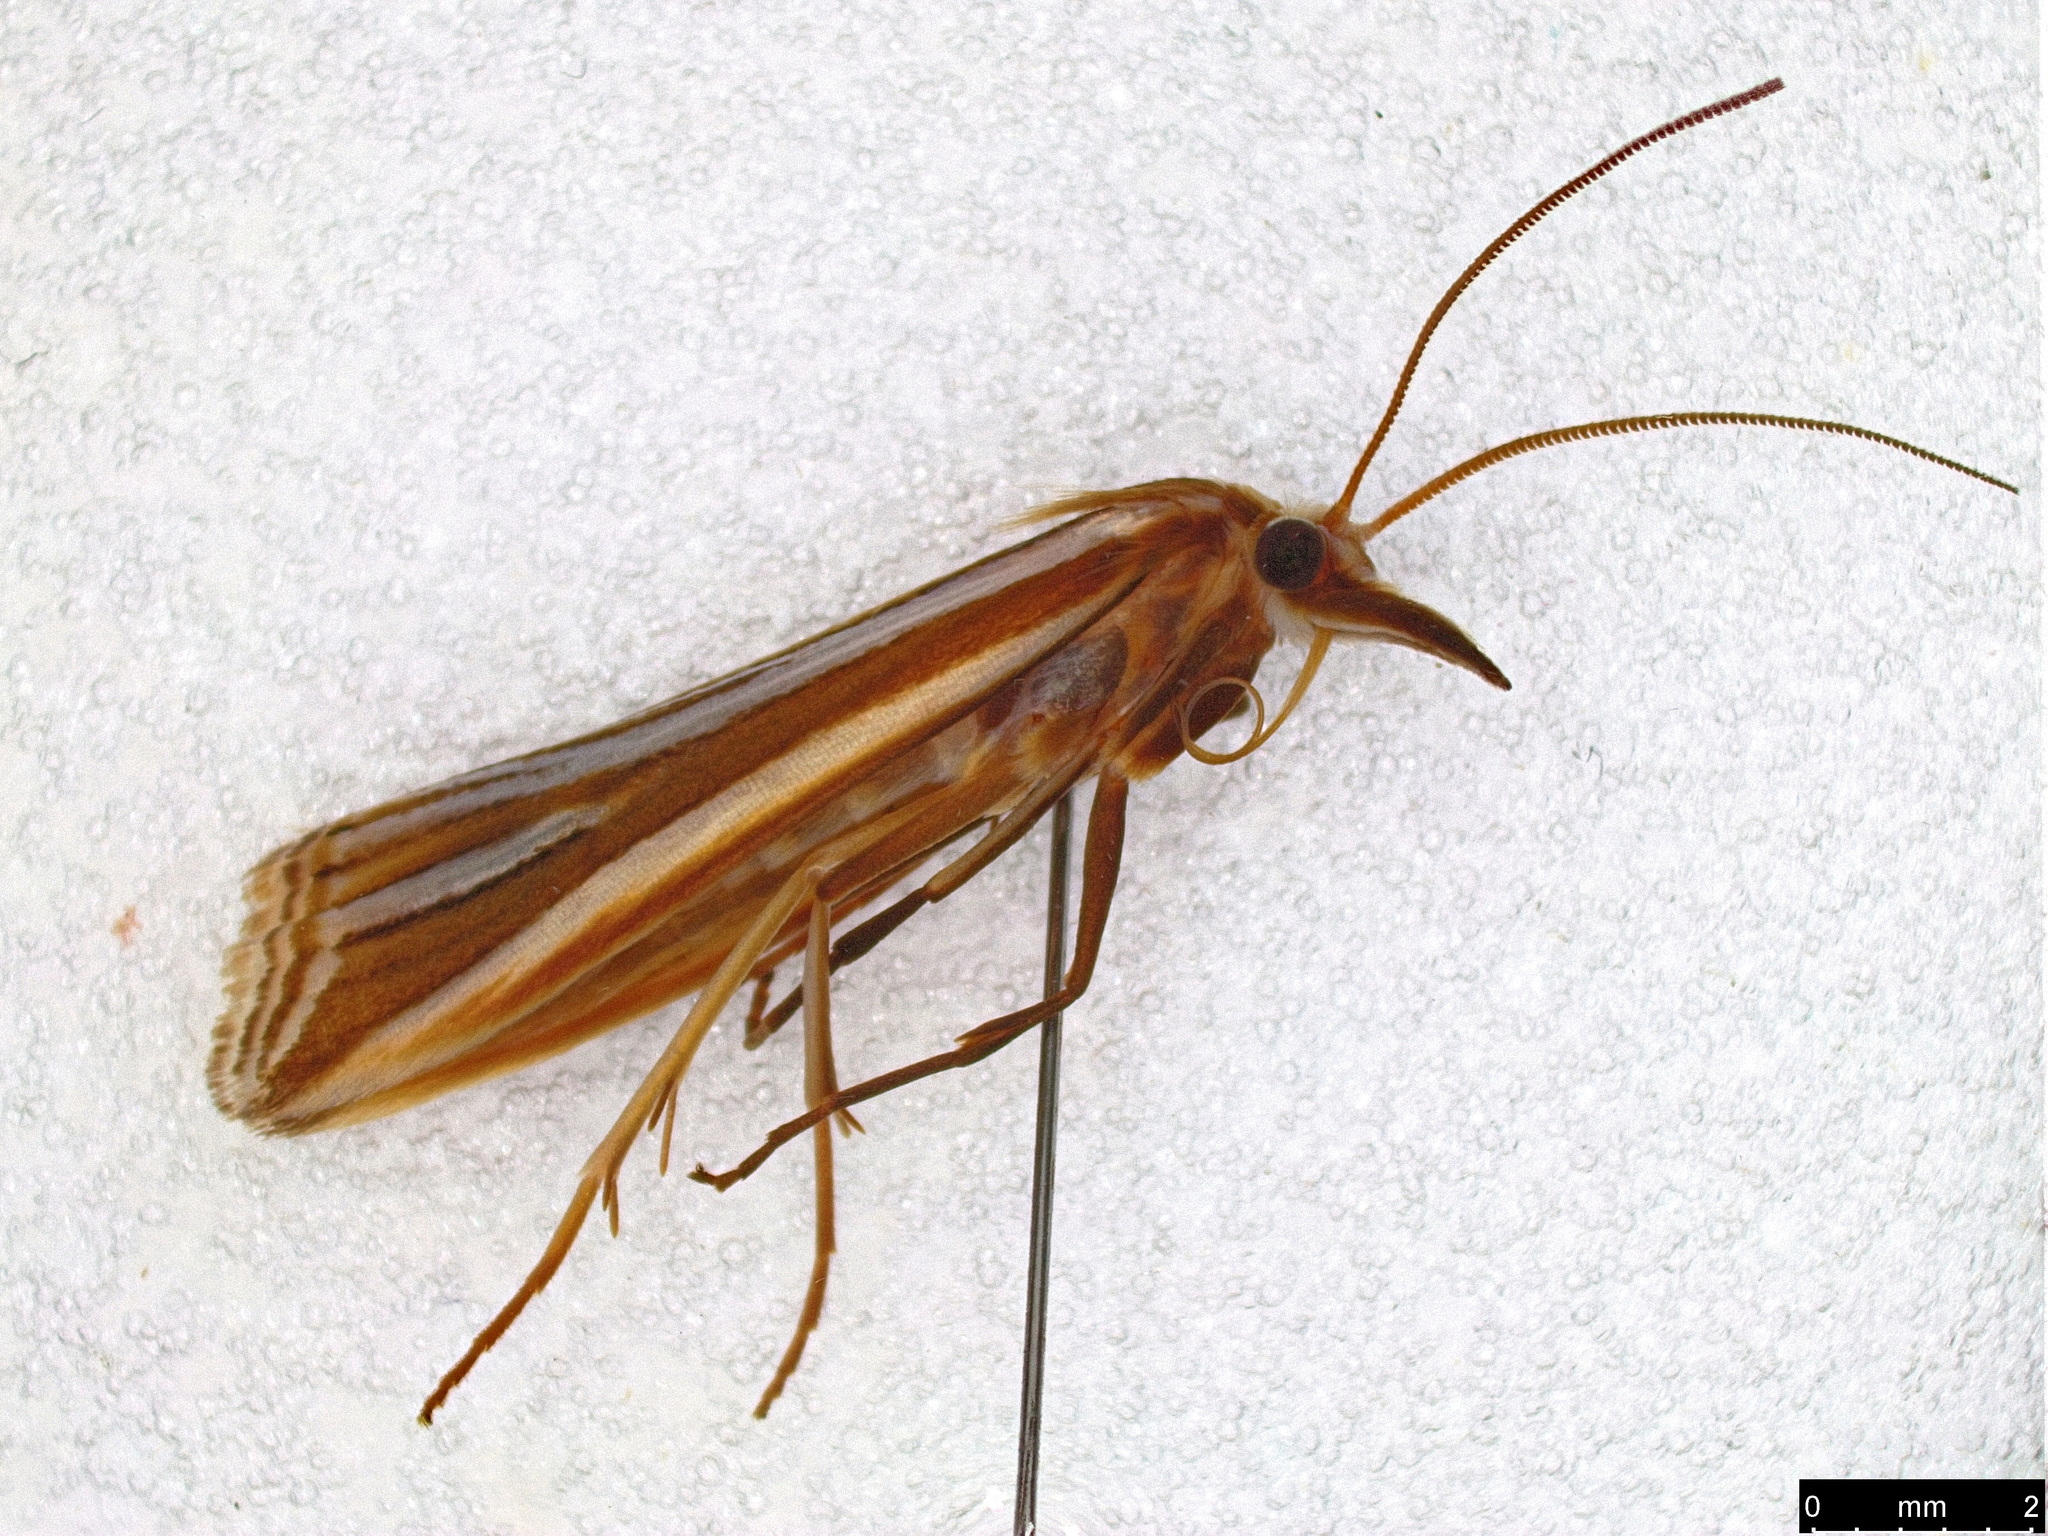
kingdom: Animalia
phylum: Arthropoda
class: Insecta
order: Lepidoptera
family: Crambidae
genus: Hednota
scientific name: Hednota relatalis
